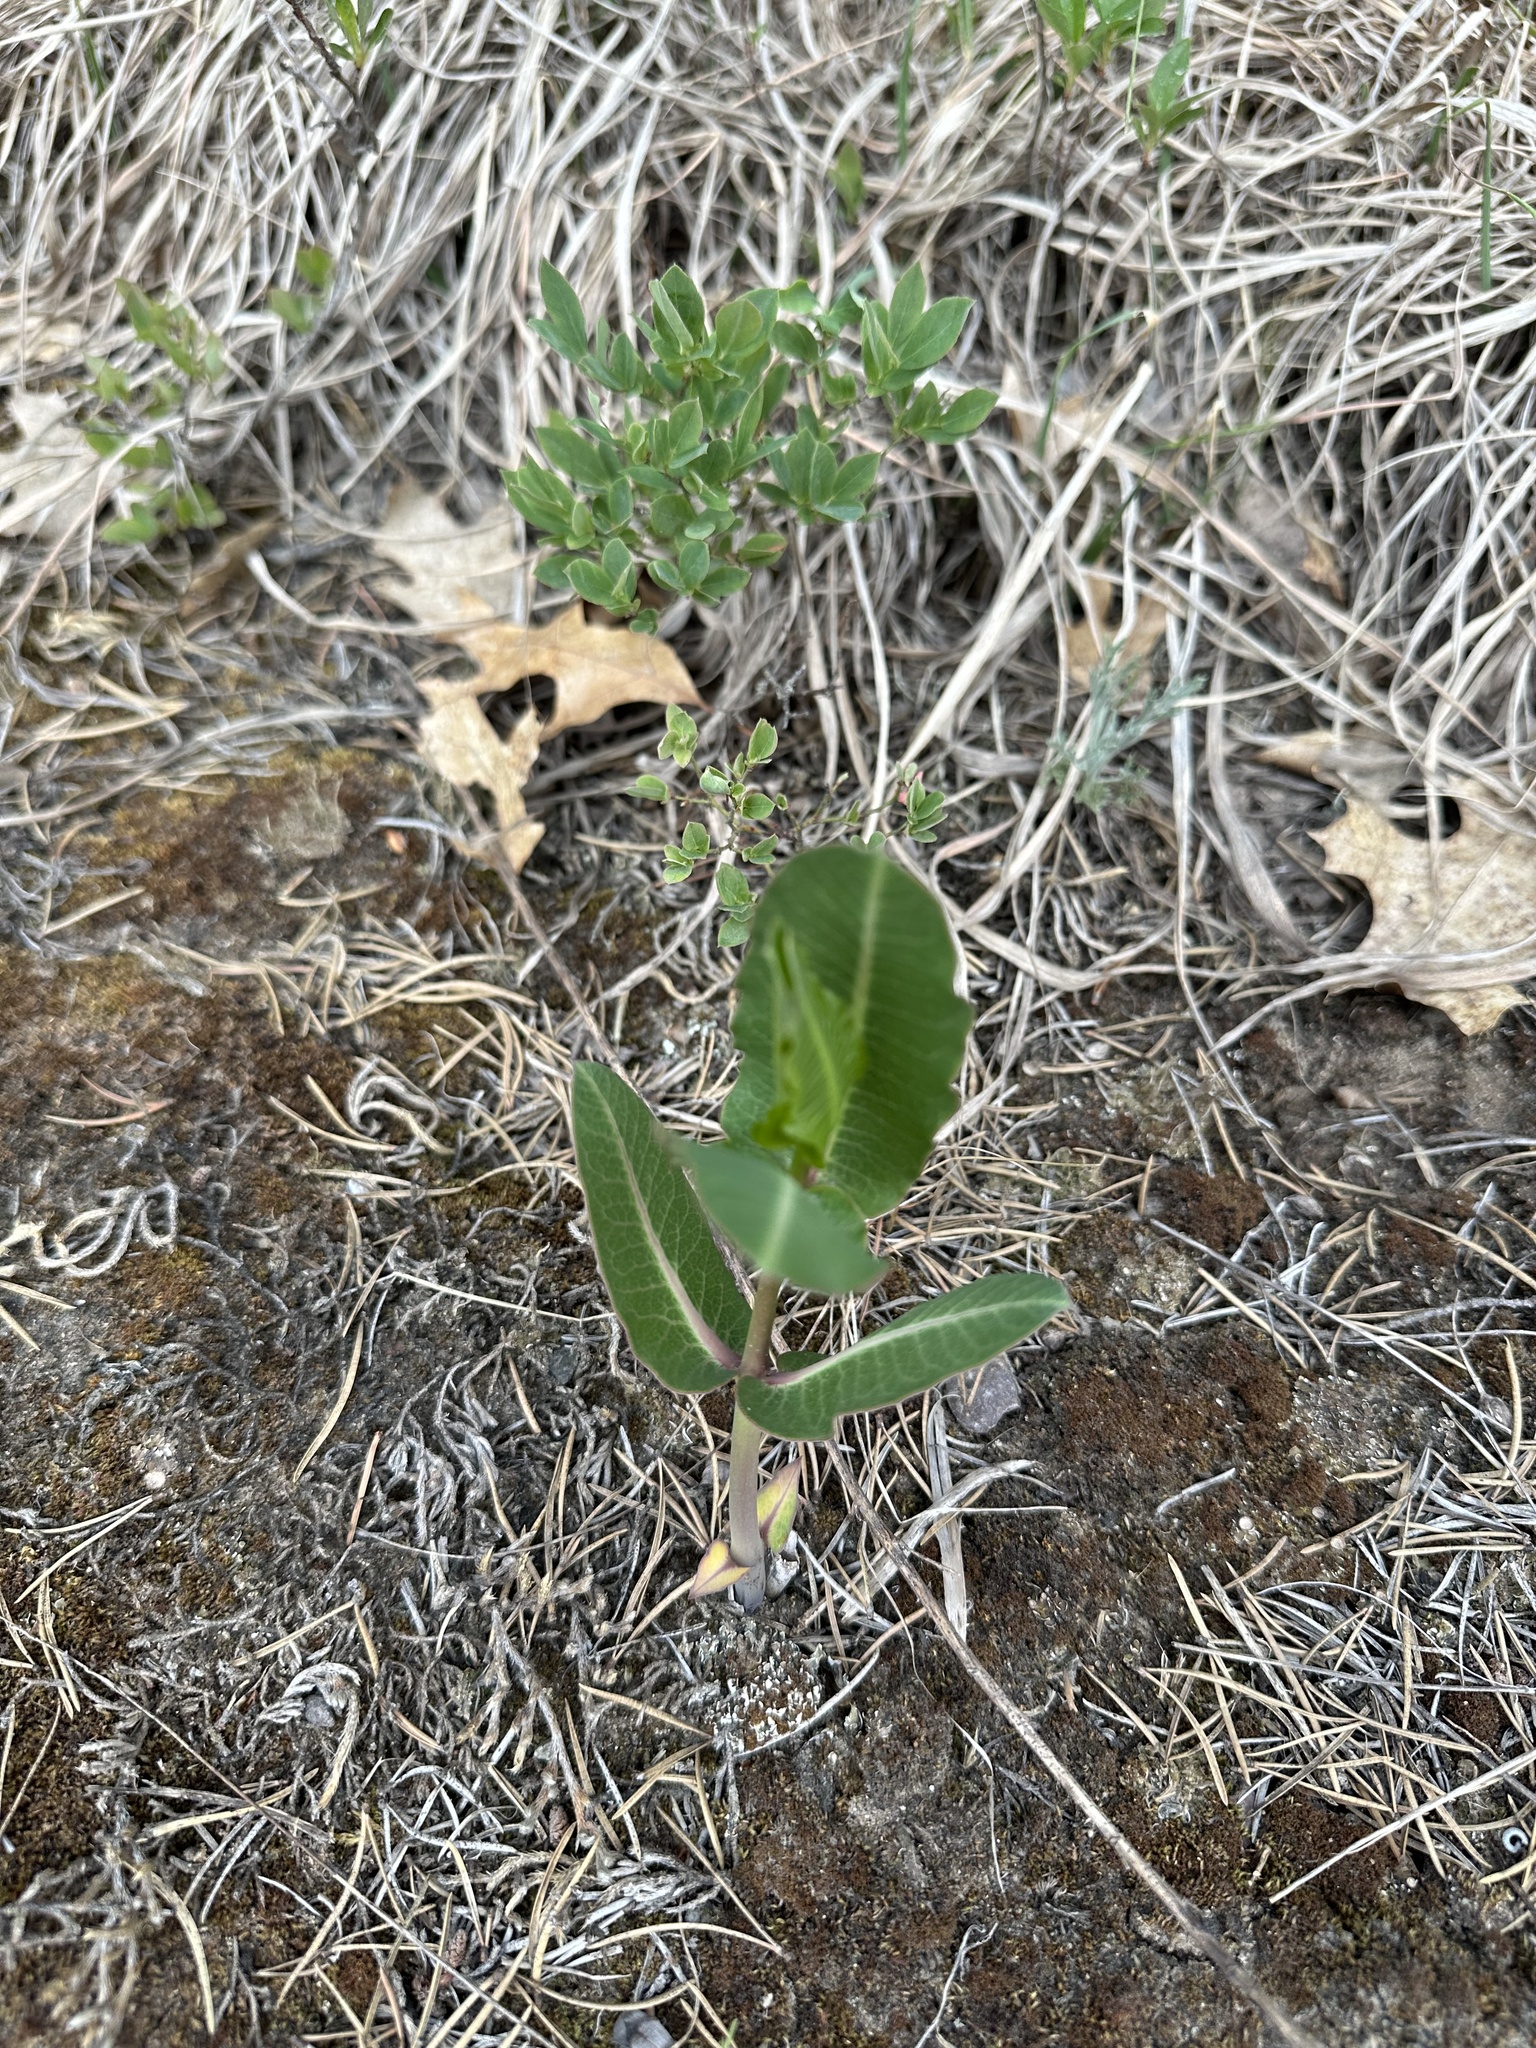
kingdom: Plantae
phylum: Tracheophyta
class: Magnoliopsida
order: Gentianales
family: Apocynaceae
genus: Asclepias
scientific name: Asclepias syriaca
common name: Common milkweed
